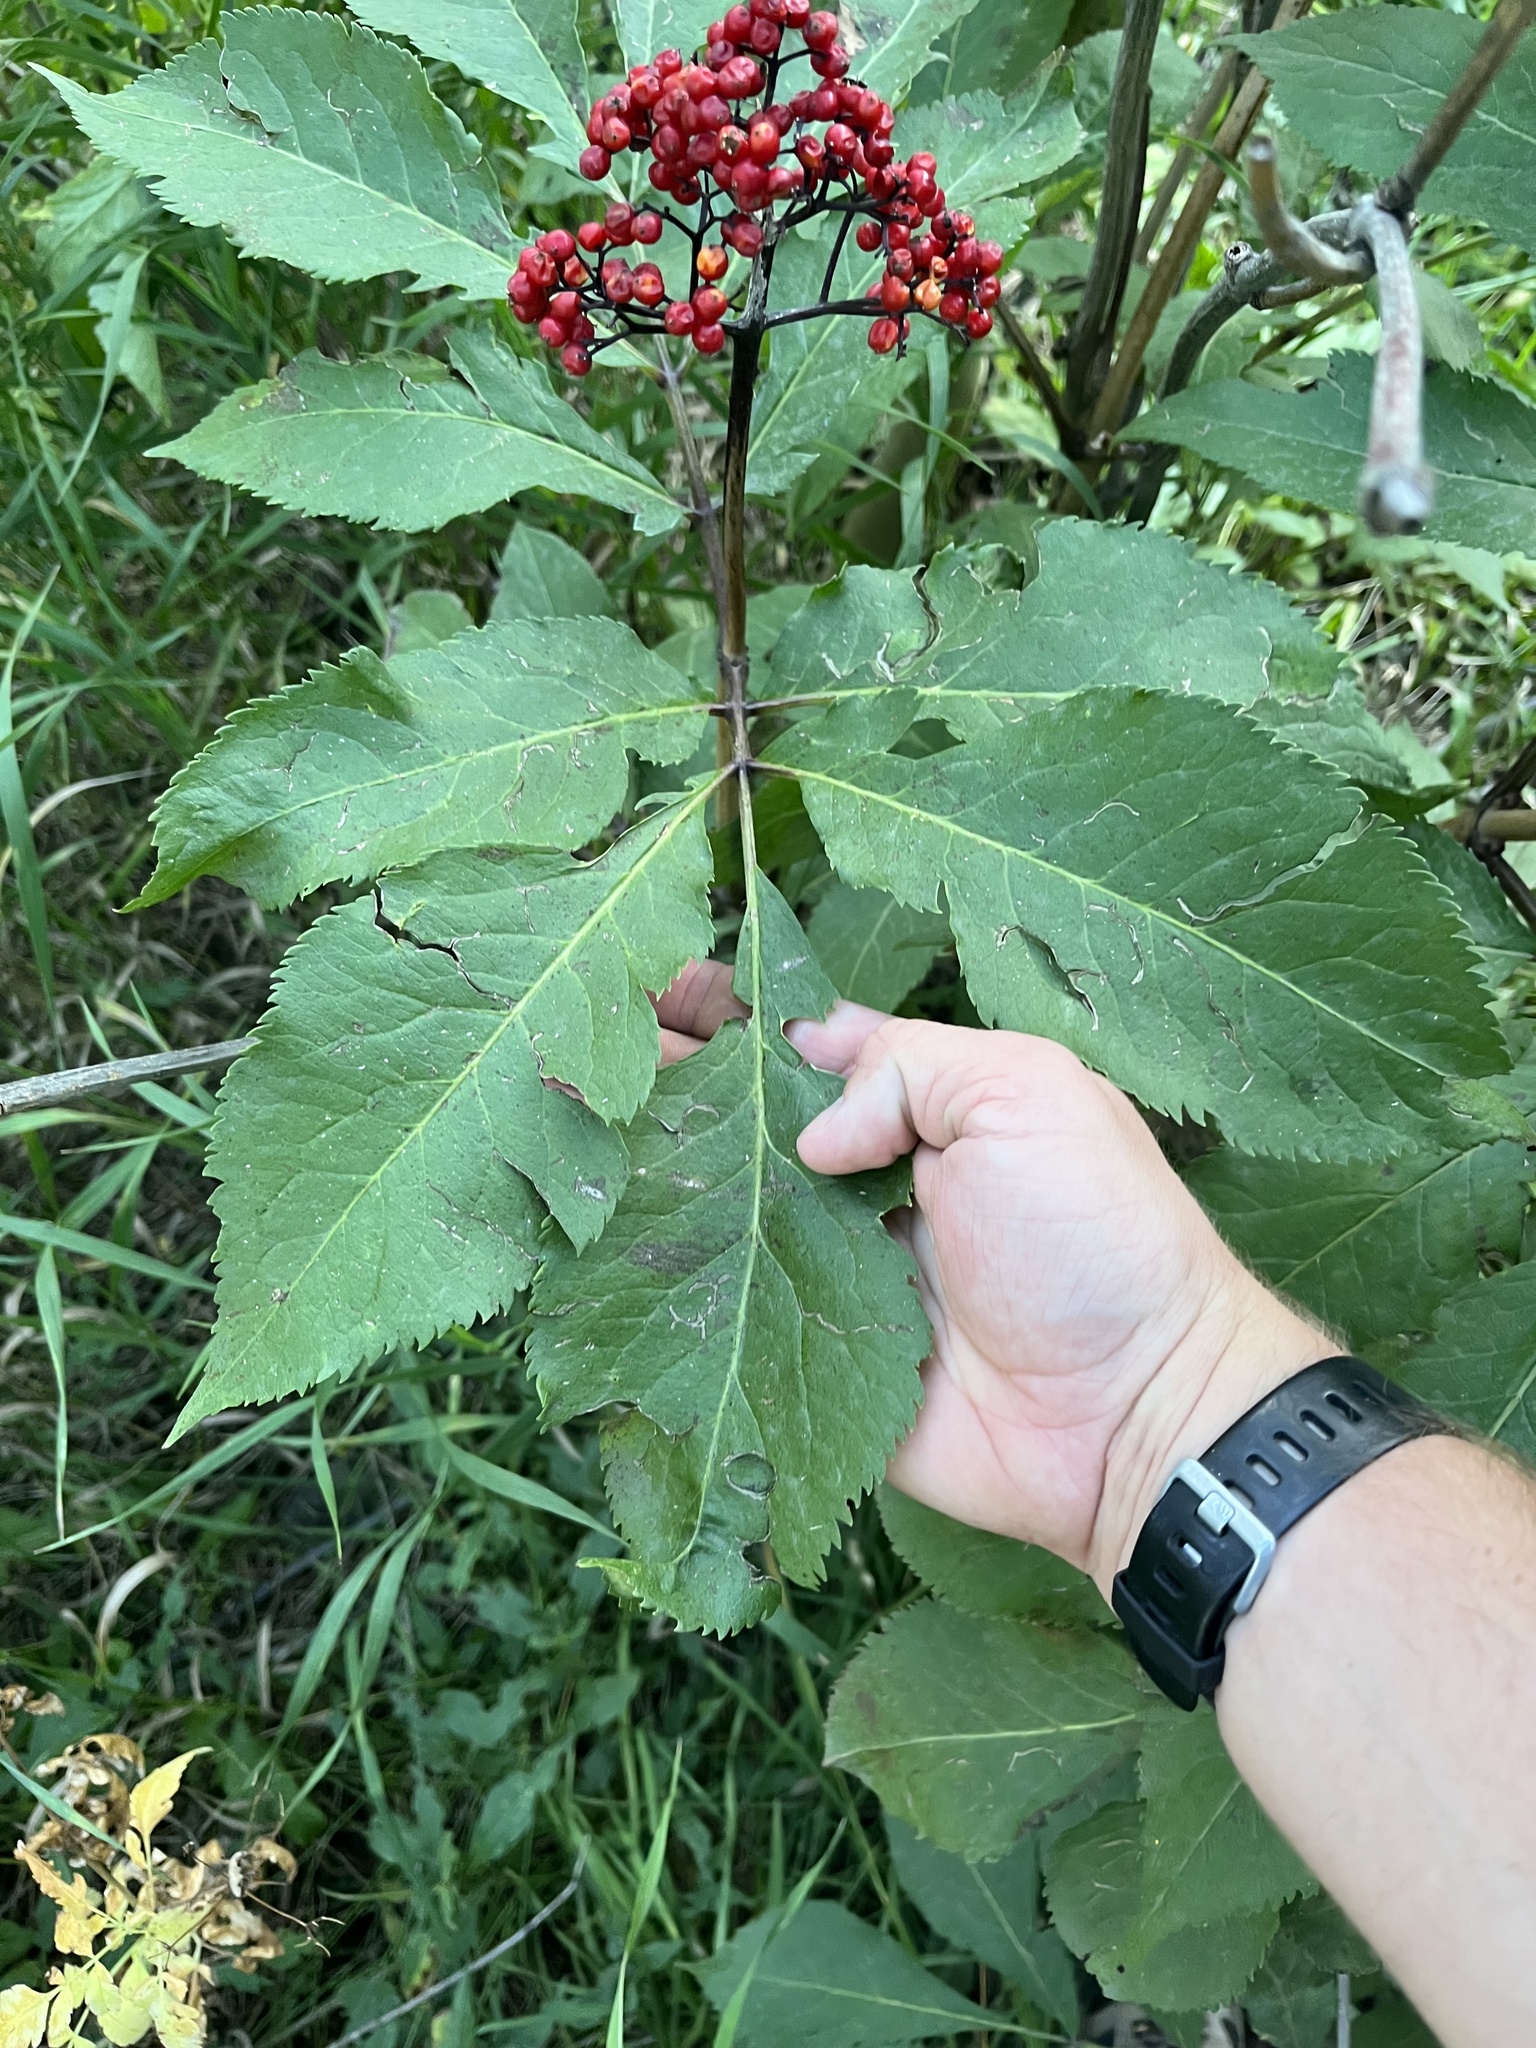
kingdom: Plantae
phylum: Tracheophyta
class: Magnoliopsida
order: Dipsacales
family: Viburnaceae
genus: Sambucus
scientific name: Sambucus racemosa
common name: Red-berried elder
